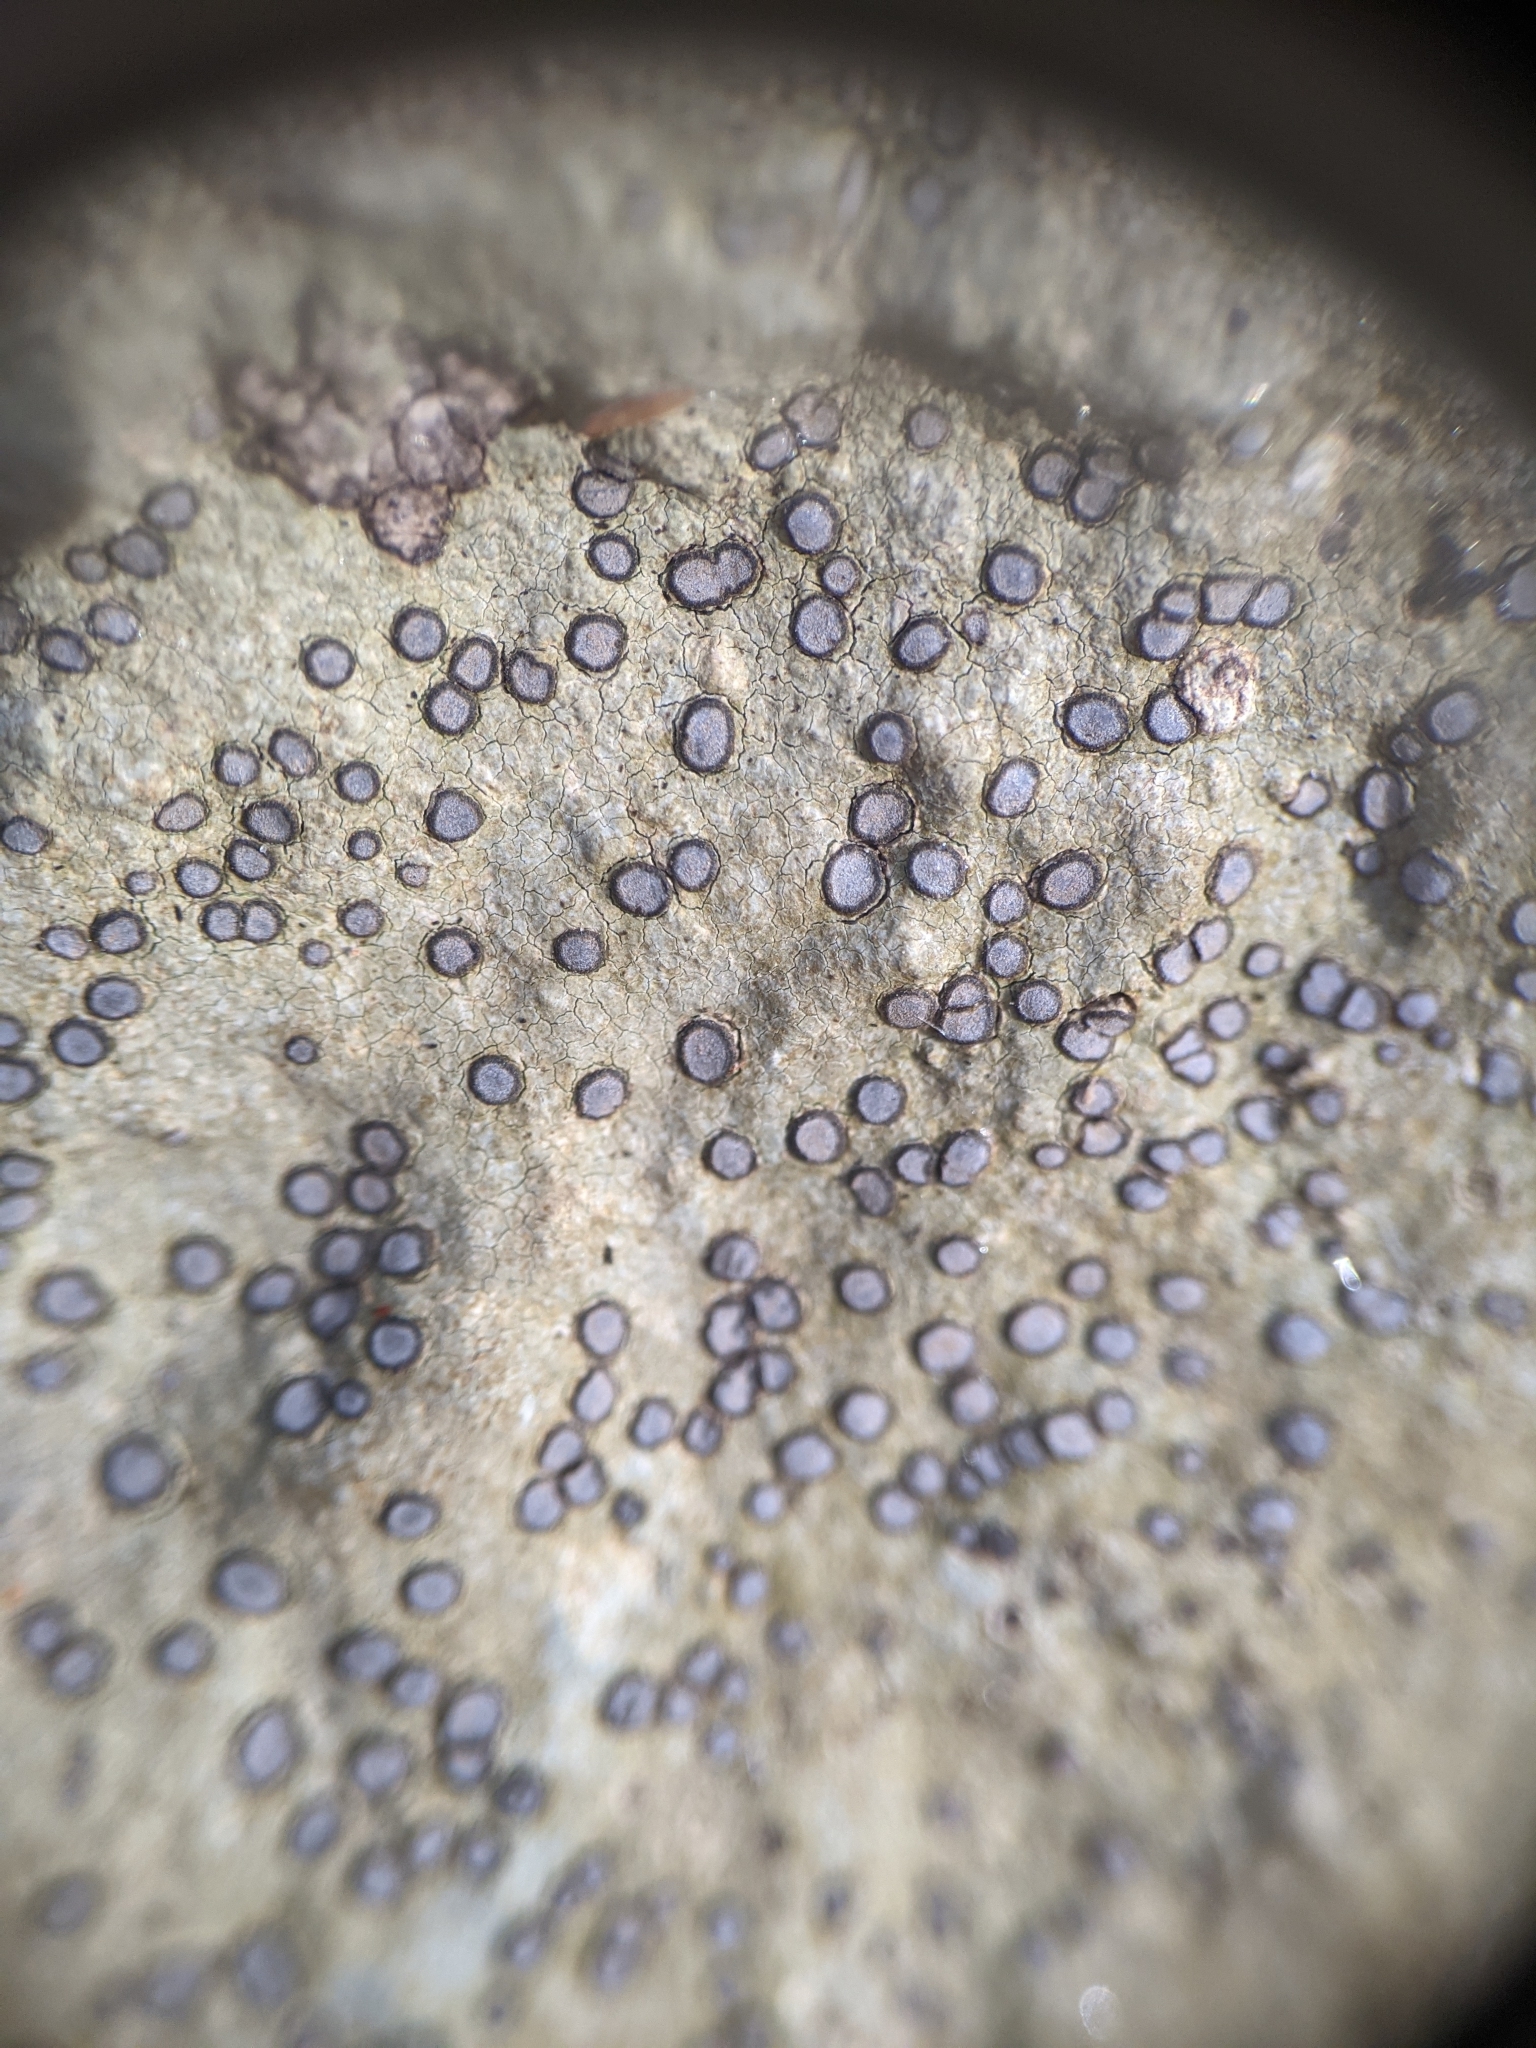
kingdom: Fungi
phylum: Ascomycota
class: Lecanoromycetes
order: Lecideales
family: Lecideaceae
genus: Porpidia
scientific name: Porpidia albocaerulescens
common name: Smokey-eyed boulder lichen
